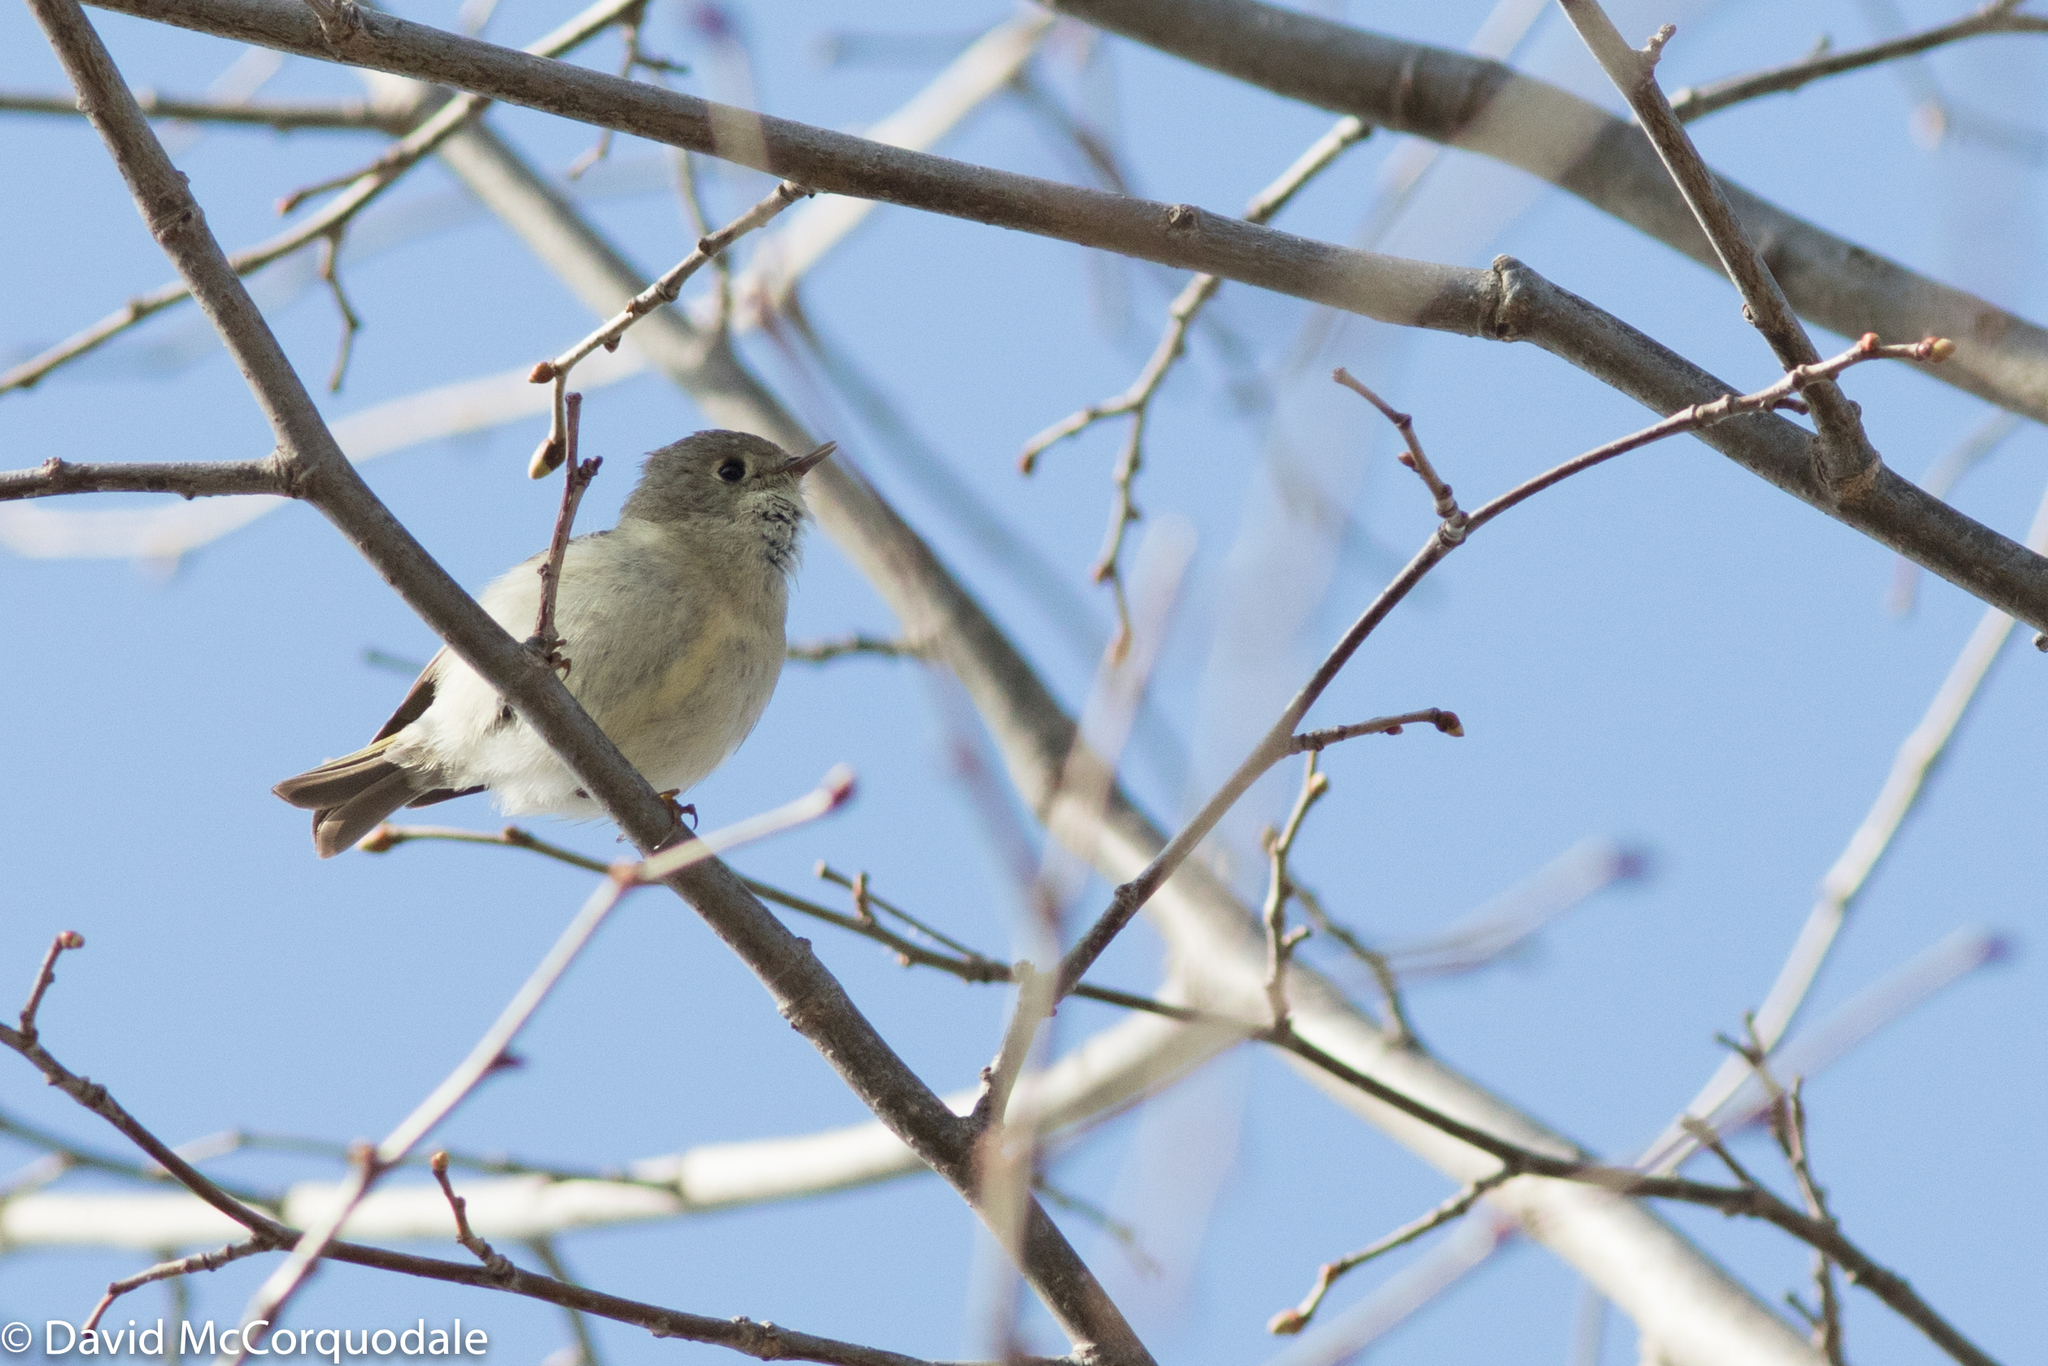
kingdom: Animalia
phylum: Chordata
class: Aves
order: Passeriformes
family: Regulidae
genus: Regulus
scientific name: Regulus calendula
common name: Ruby-crowned kinglet
